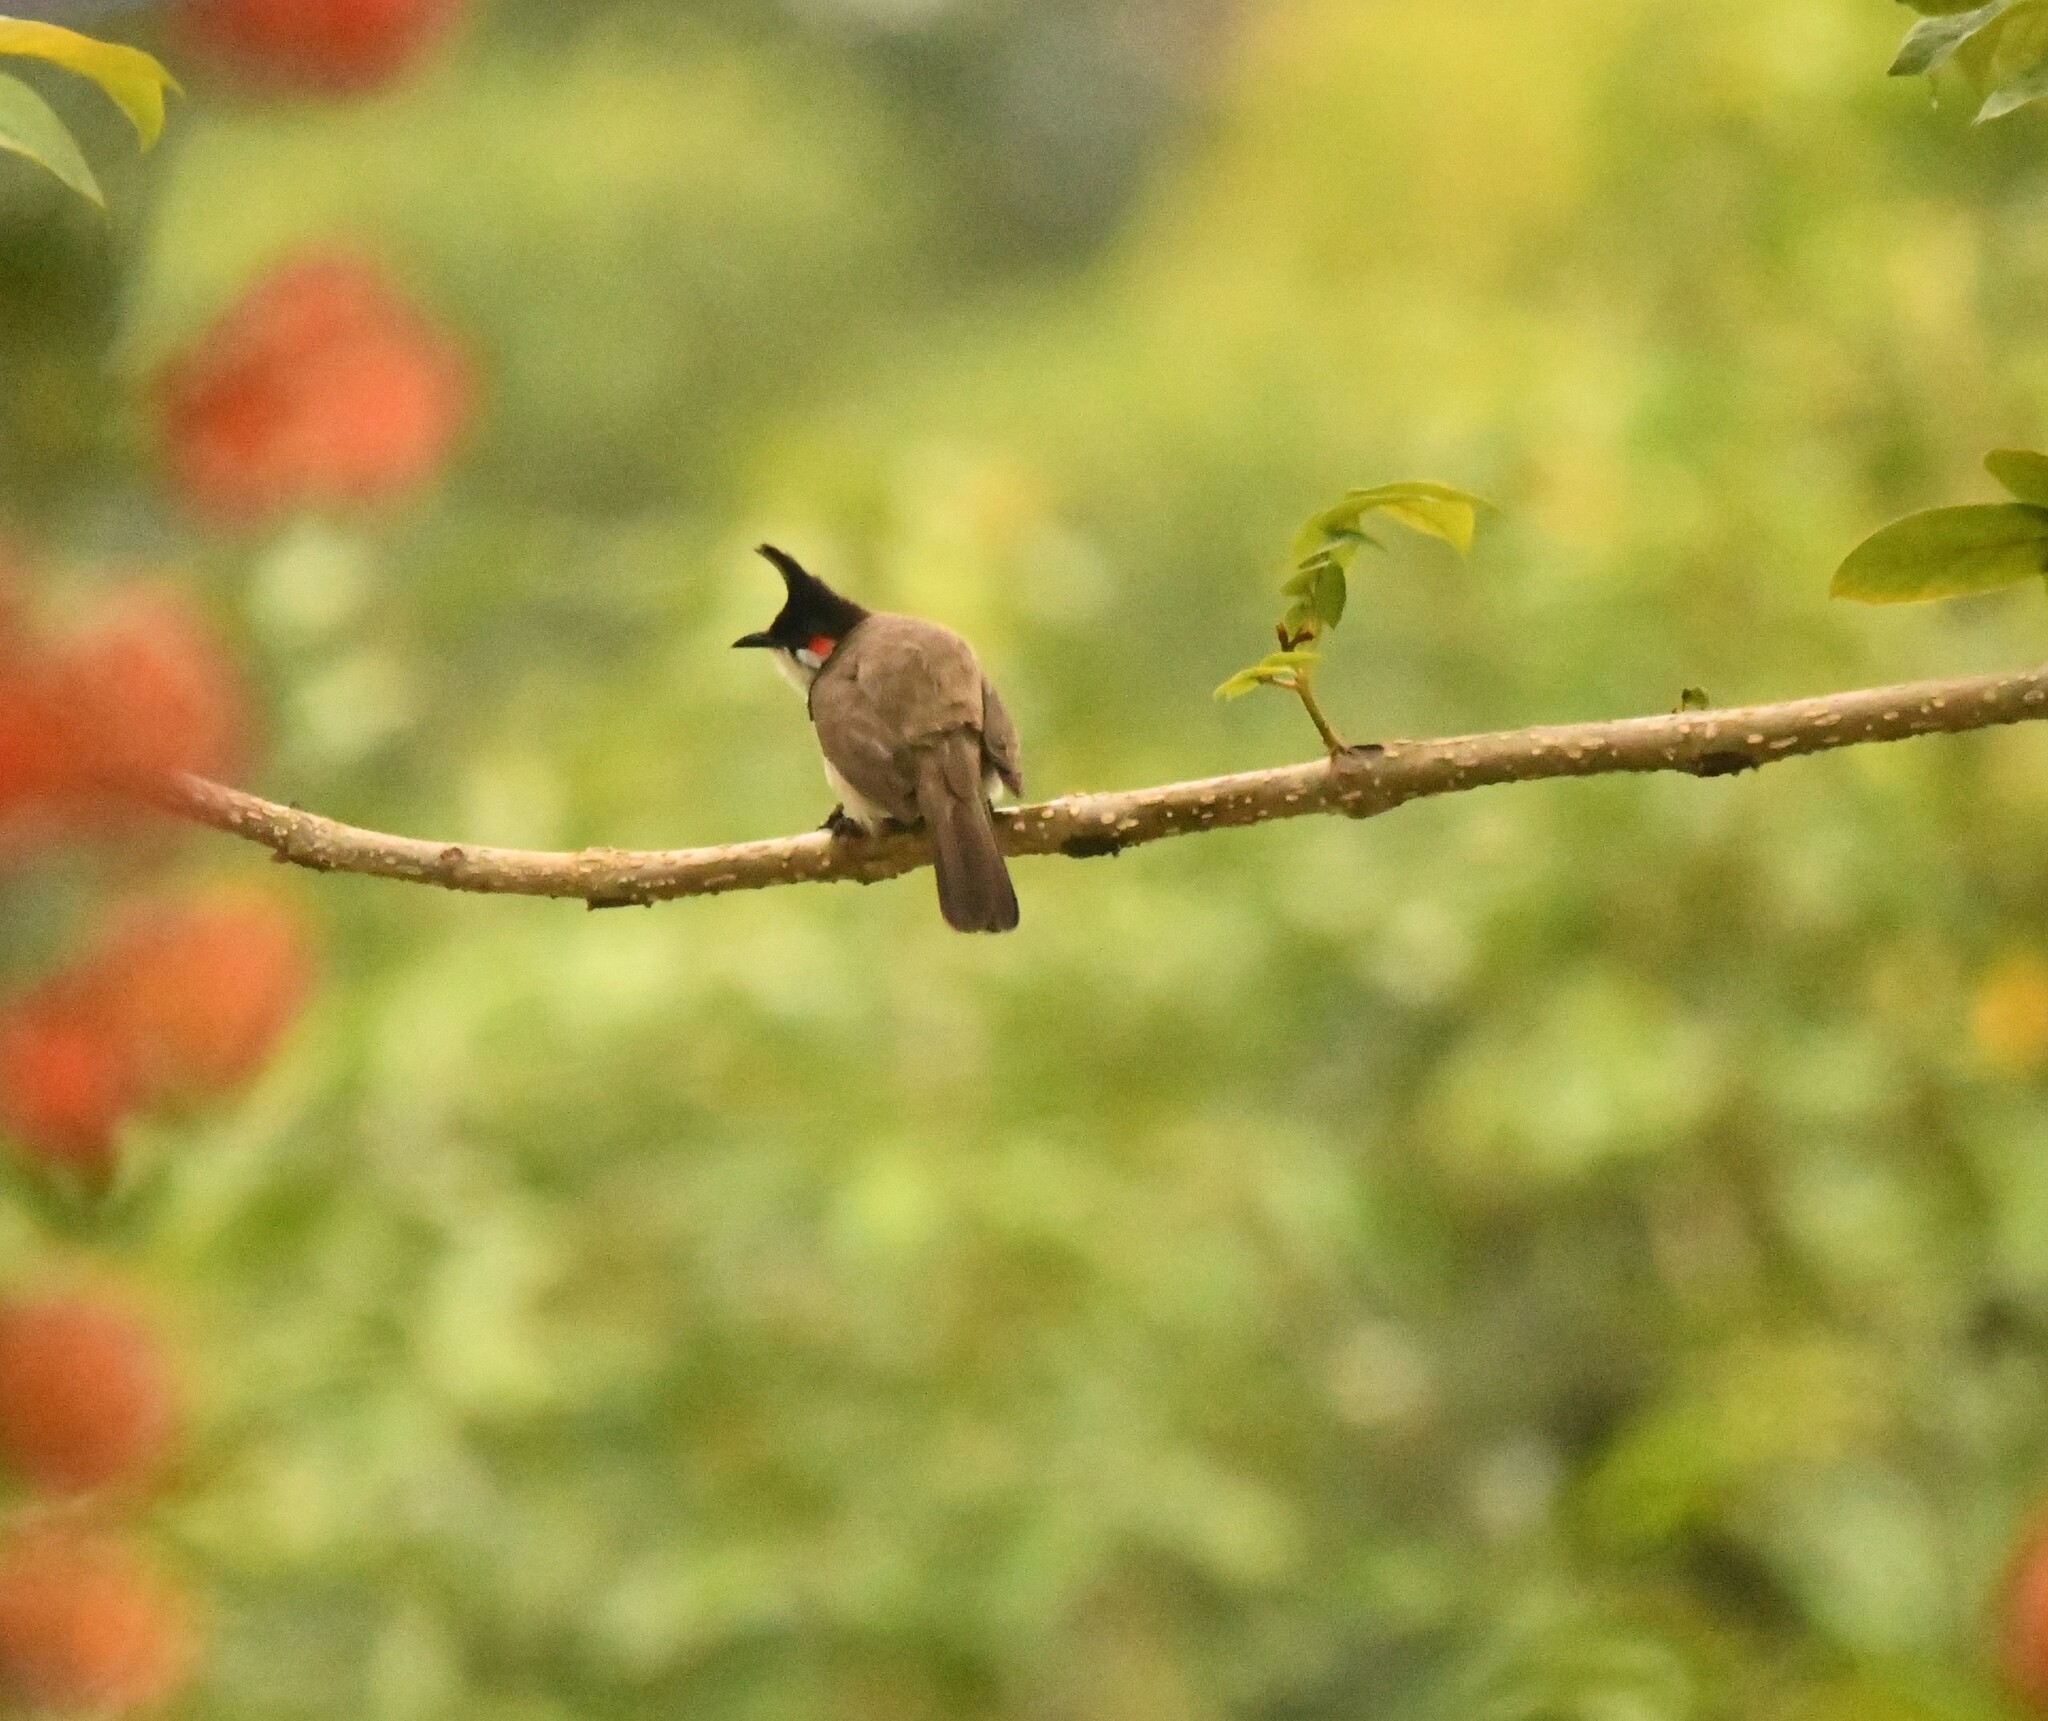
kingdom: Animalia
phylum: Chordata
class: Aves
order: Passeriformes
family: Pycnonotidae
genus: Pycnonotus
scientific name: Pycnonotus jocosus
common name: Red-whiskered bulbul
